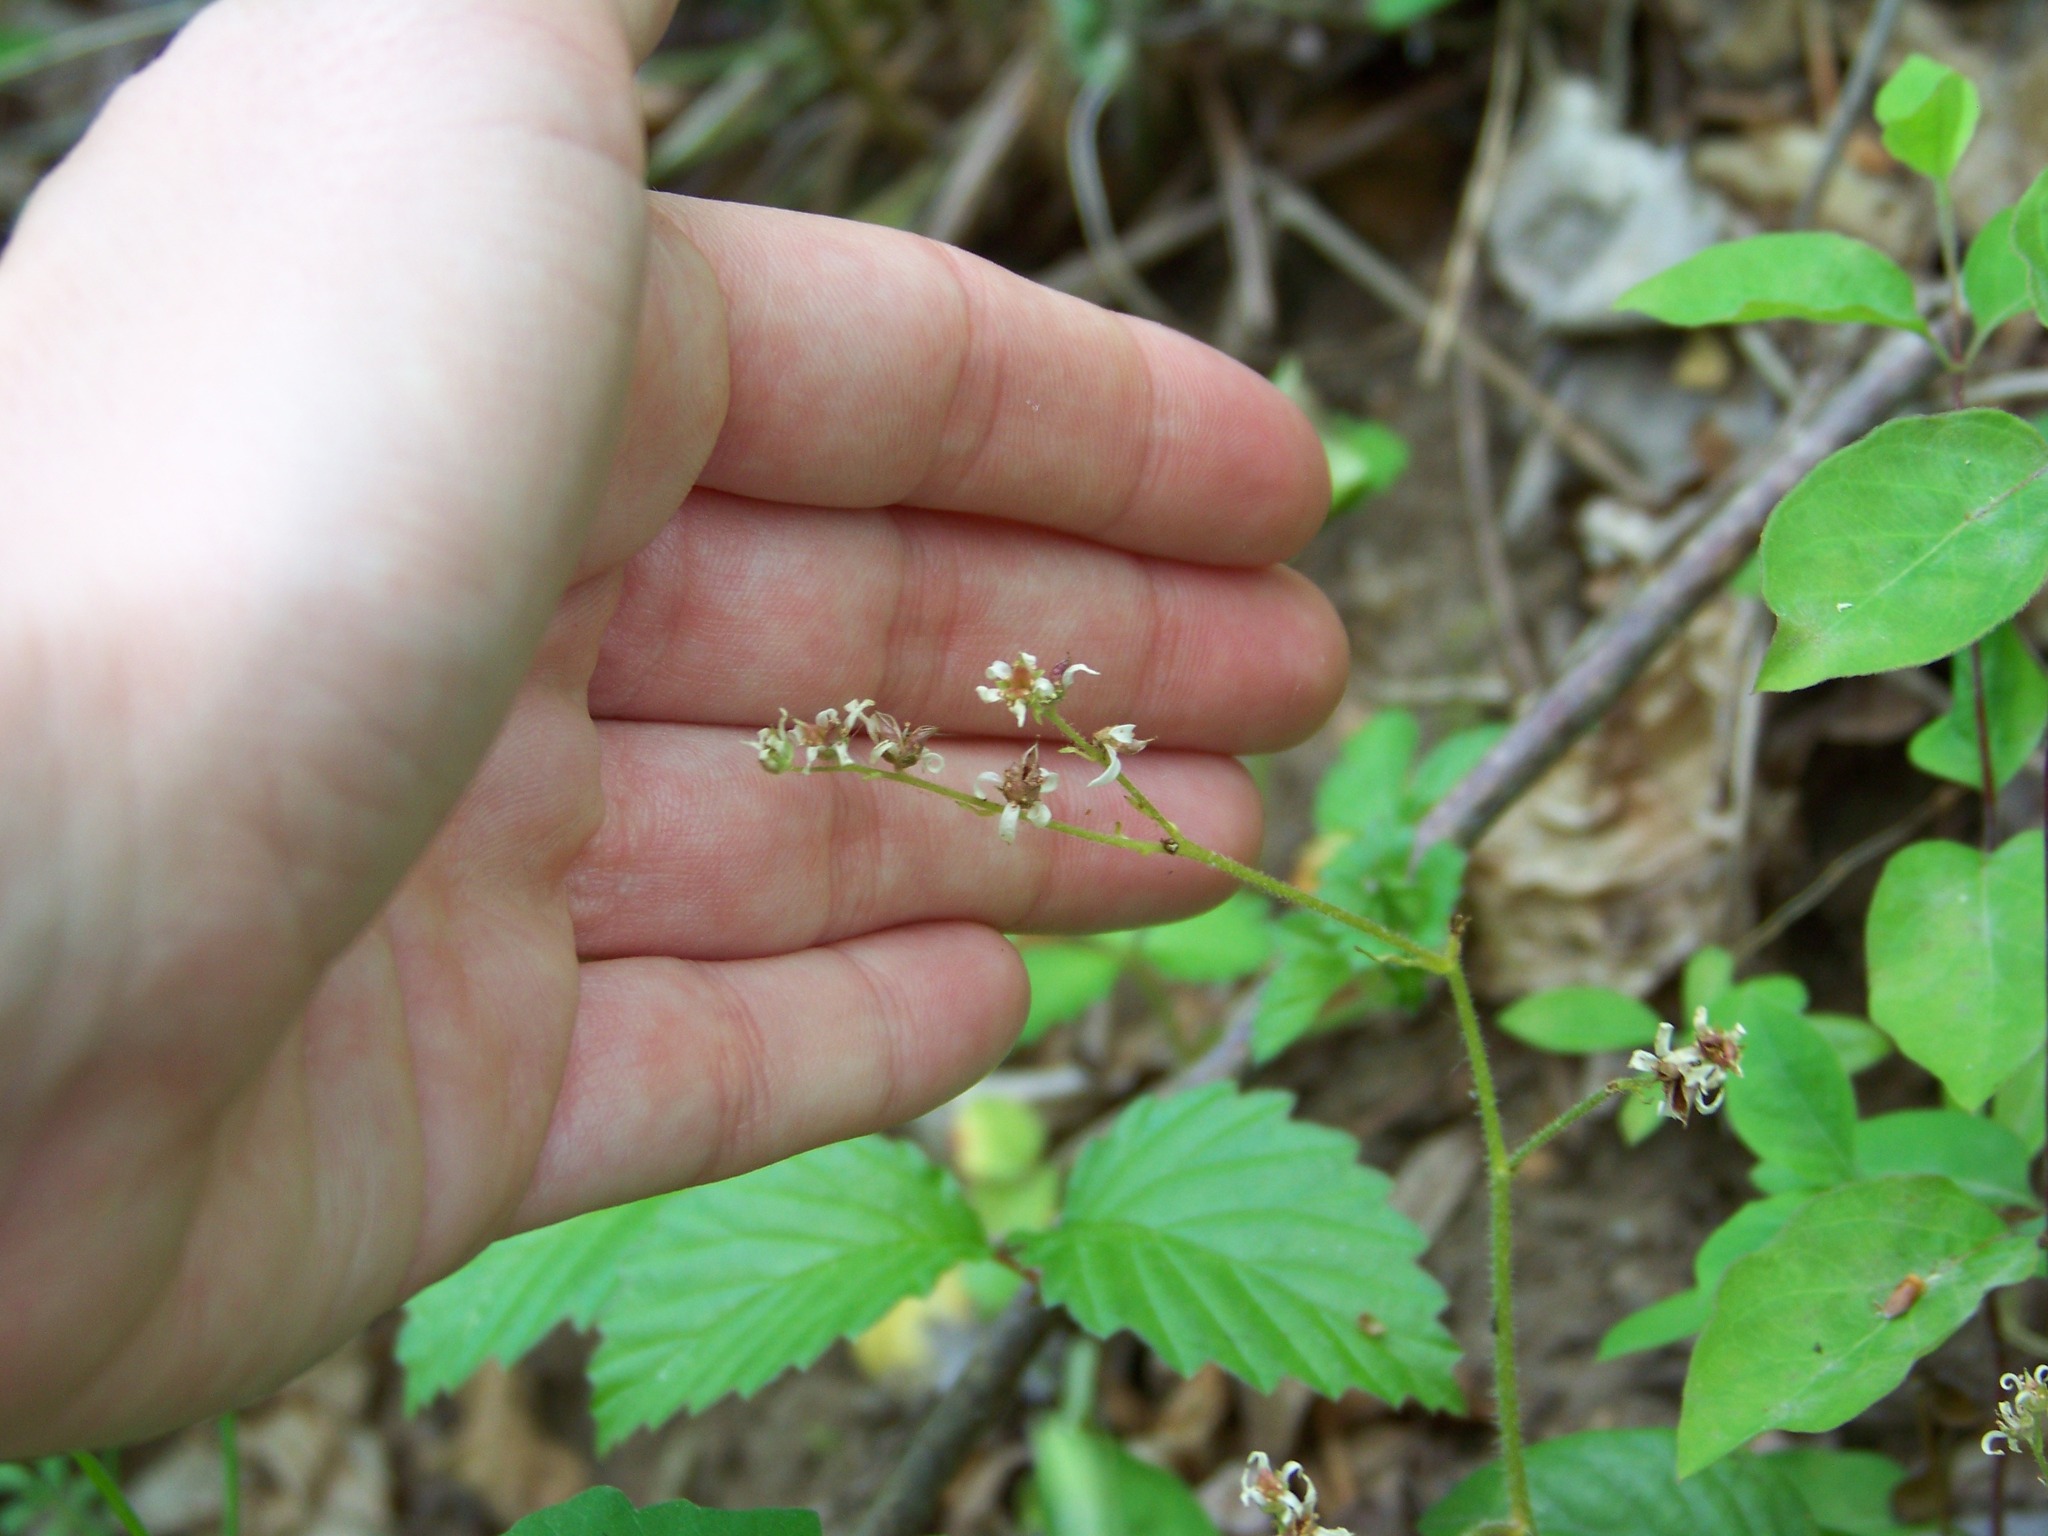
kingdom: Plantae
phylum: Tracheophyta
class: Magnoliopsida
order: Saxifragales
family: Saxifragaceae
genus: Micranthes
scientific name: Micranthes virginiensis
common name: Early saxifrage
